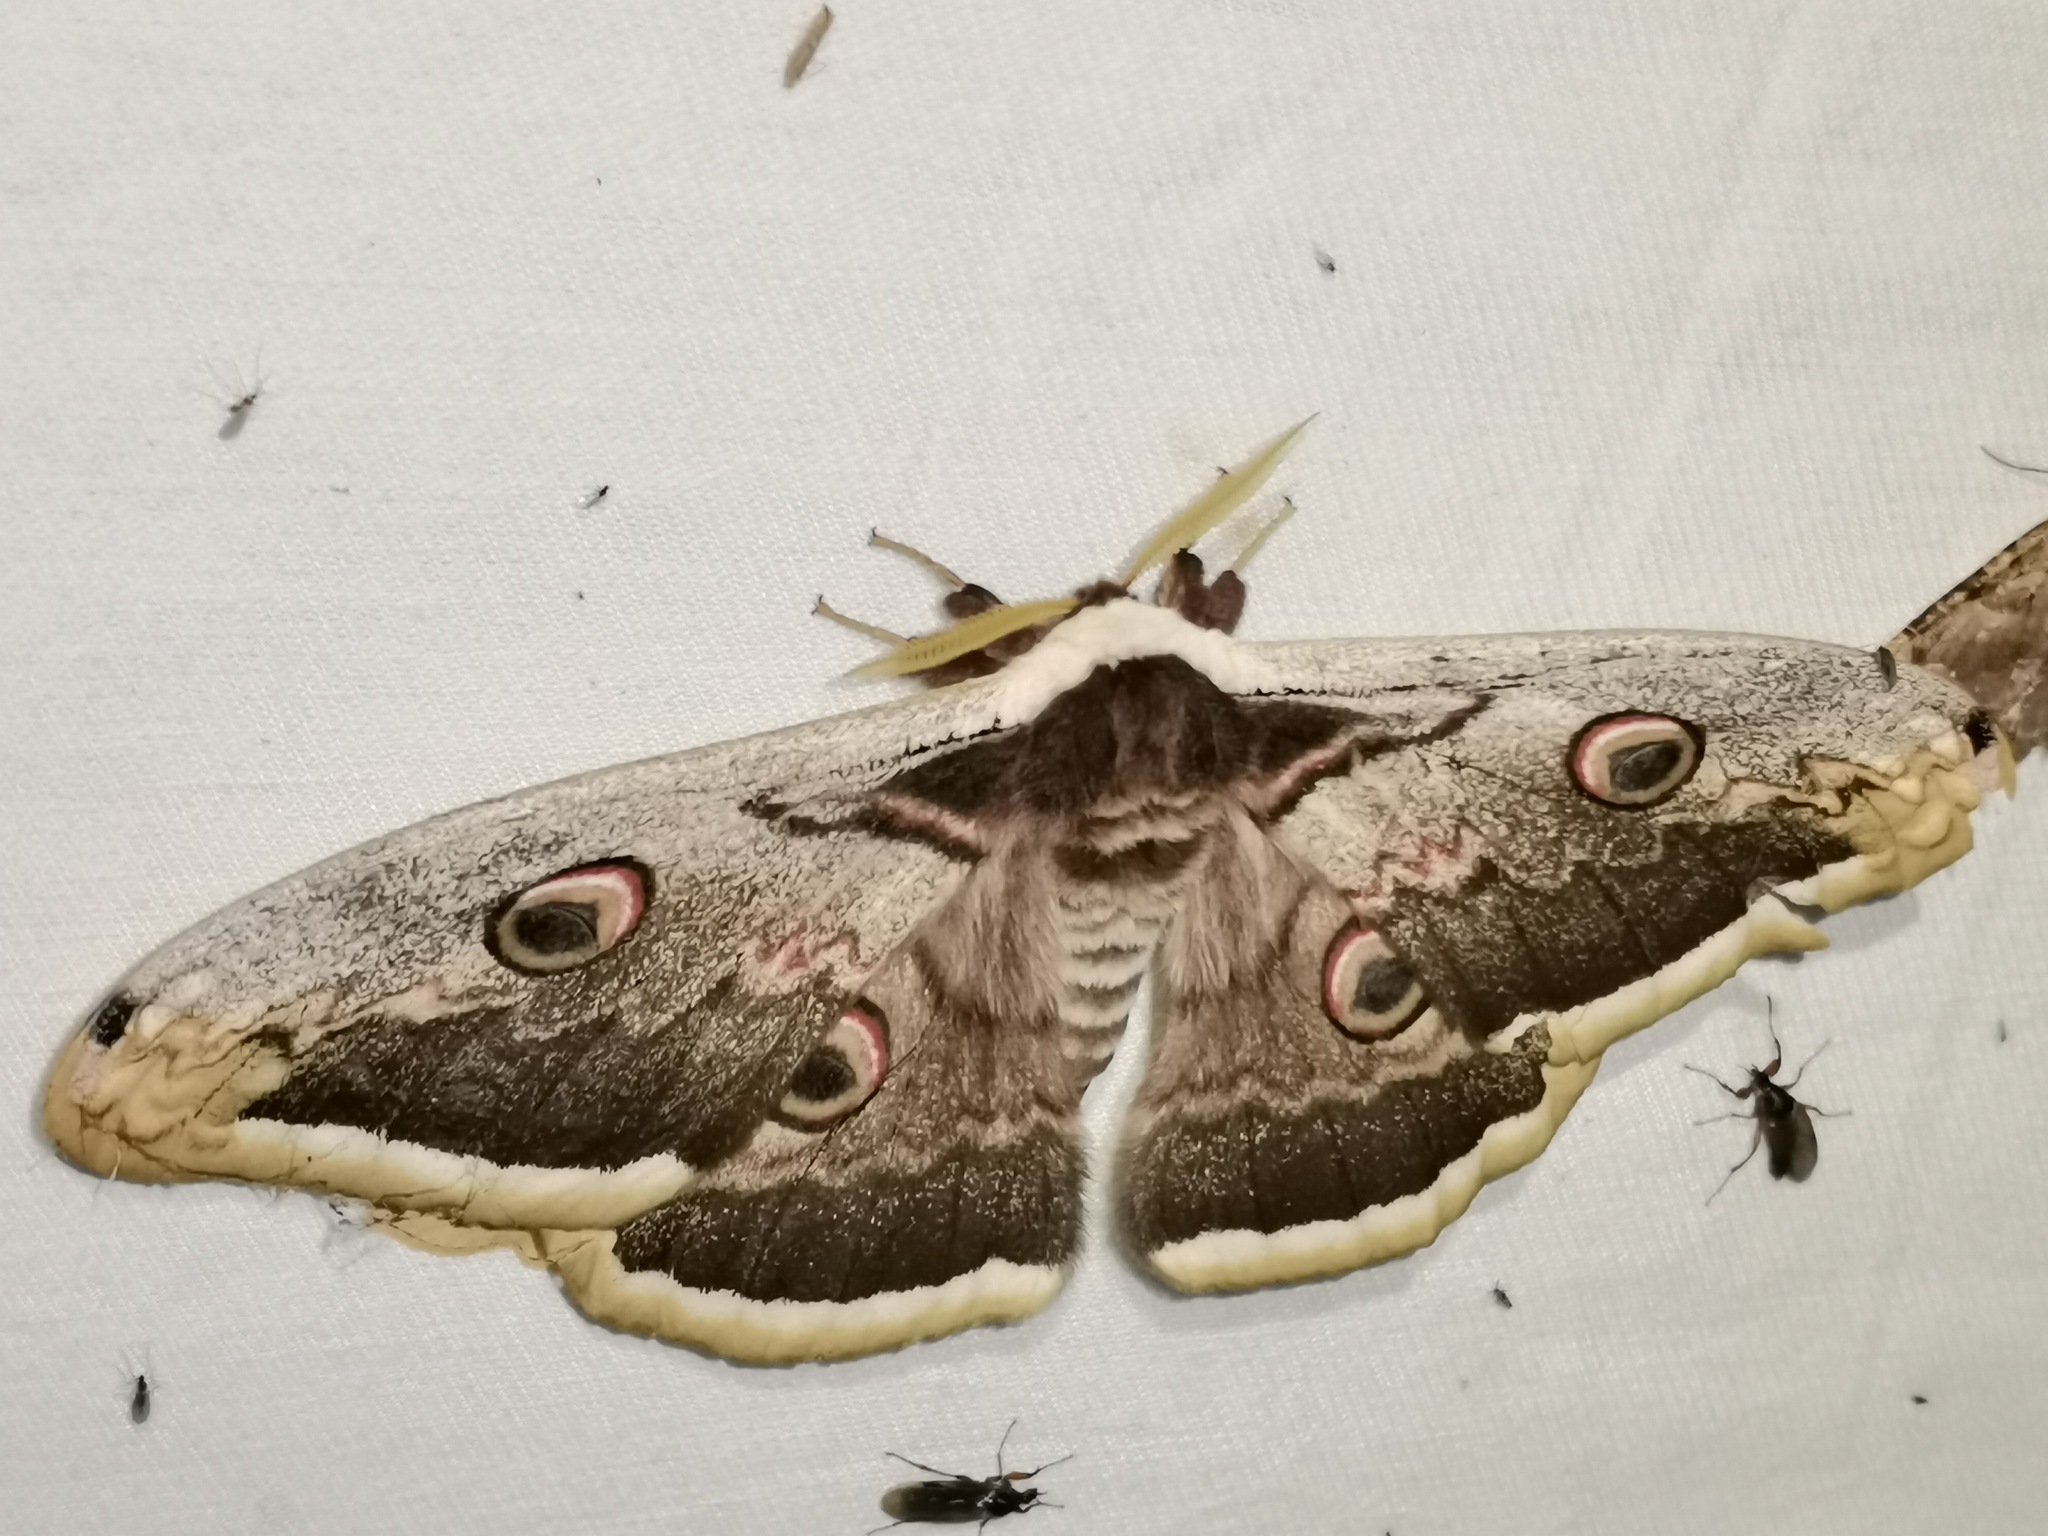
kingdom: Animalia
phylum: Arthropoda
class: Insecta
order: Lepidoptera
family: Saturniidae
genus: Saturnia
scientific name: Saturnia pyri
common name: Great peacock moth
